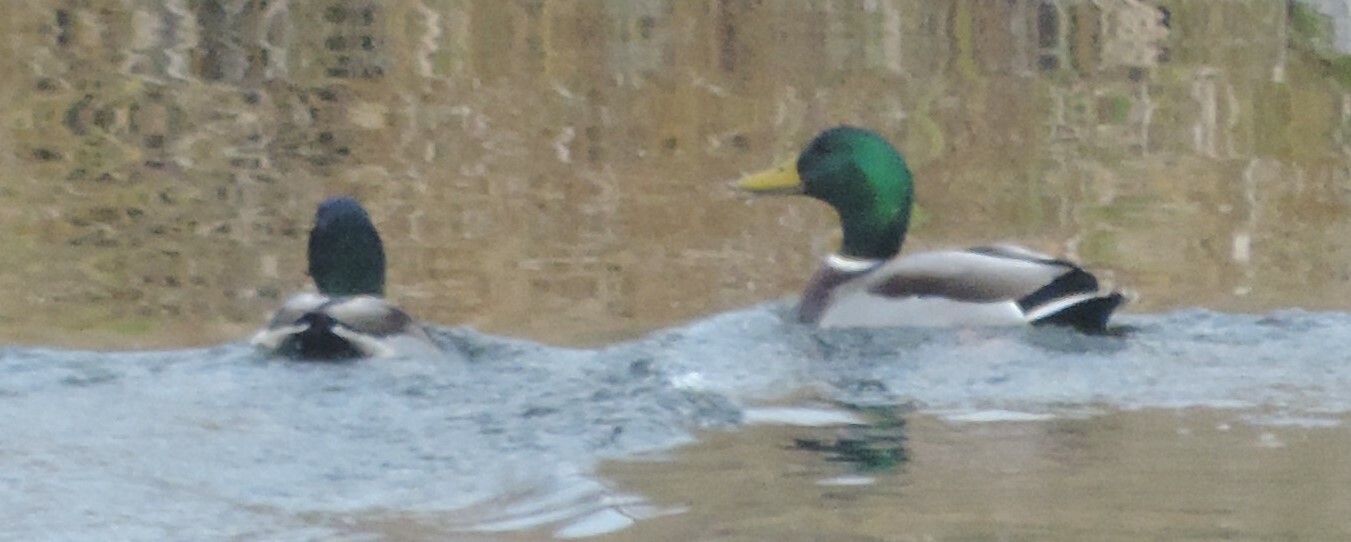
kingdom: Animalia
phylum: Chordata
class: Aves
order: Anseriformes
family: Anatidae
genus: Anas
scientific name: Anas platyrhynchos
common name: Mallard
